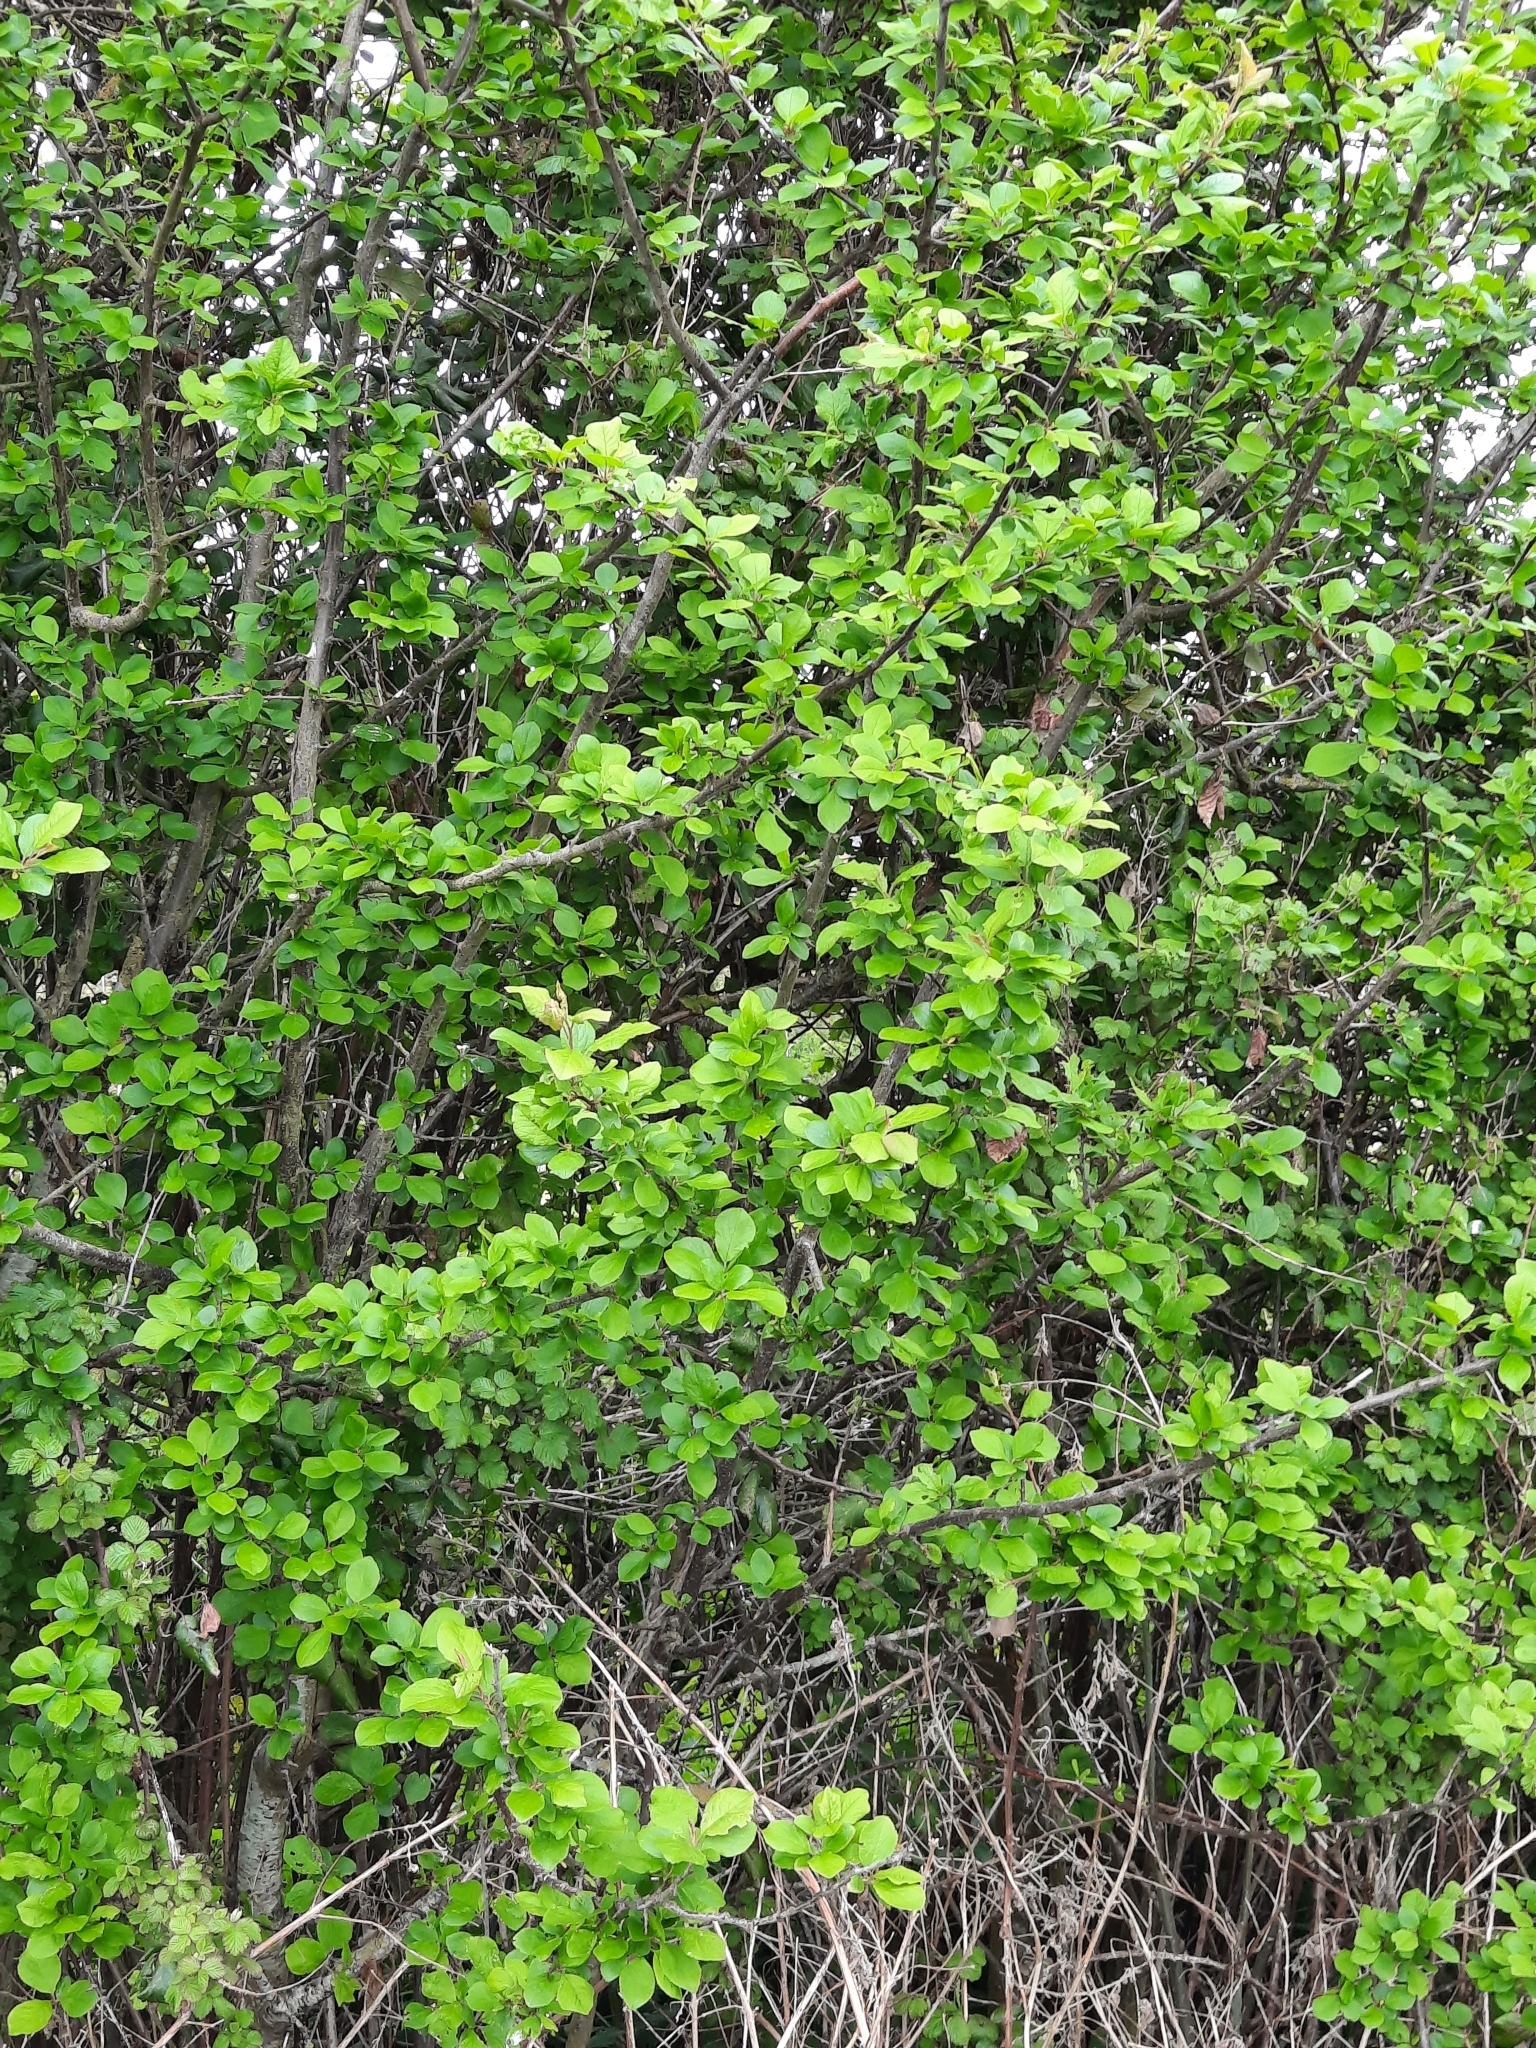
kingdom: Plantae
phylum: Tracheophyta
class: Magnoliopsida
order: Rosales
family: Rosaceae
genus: Prunus
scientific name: Prunus spinosa
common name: Blackthorn
